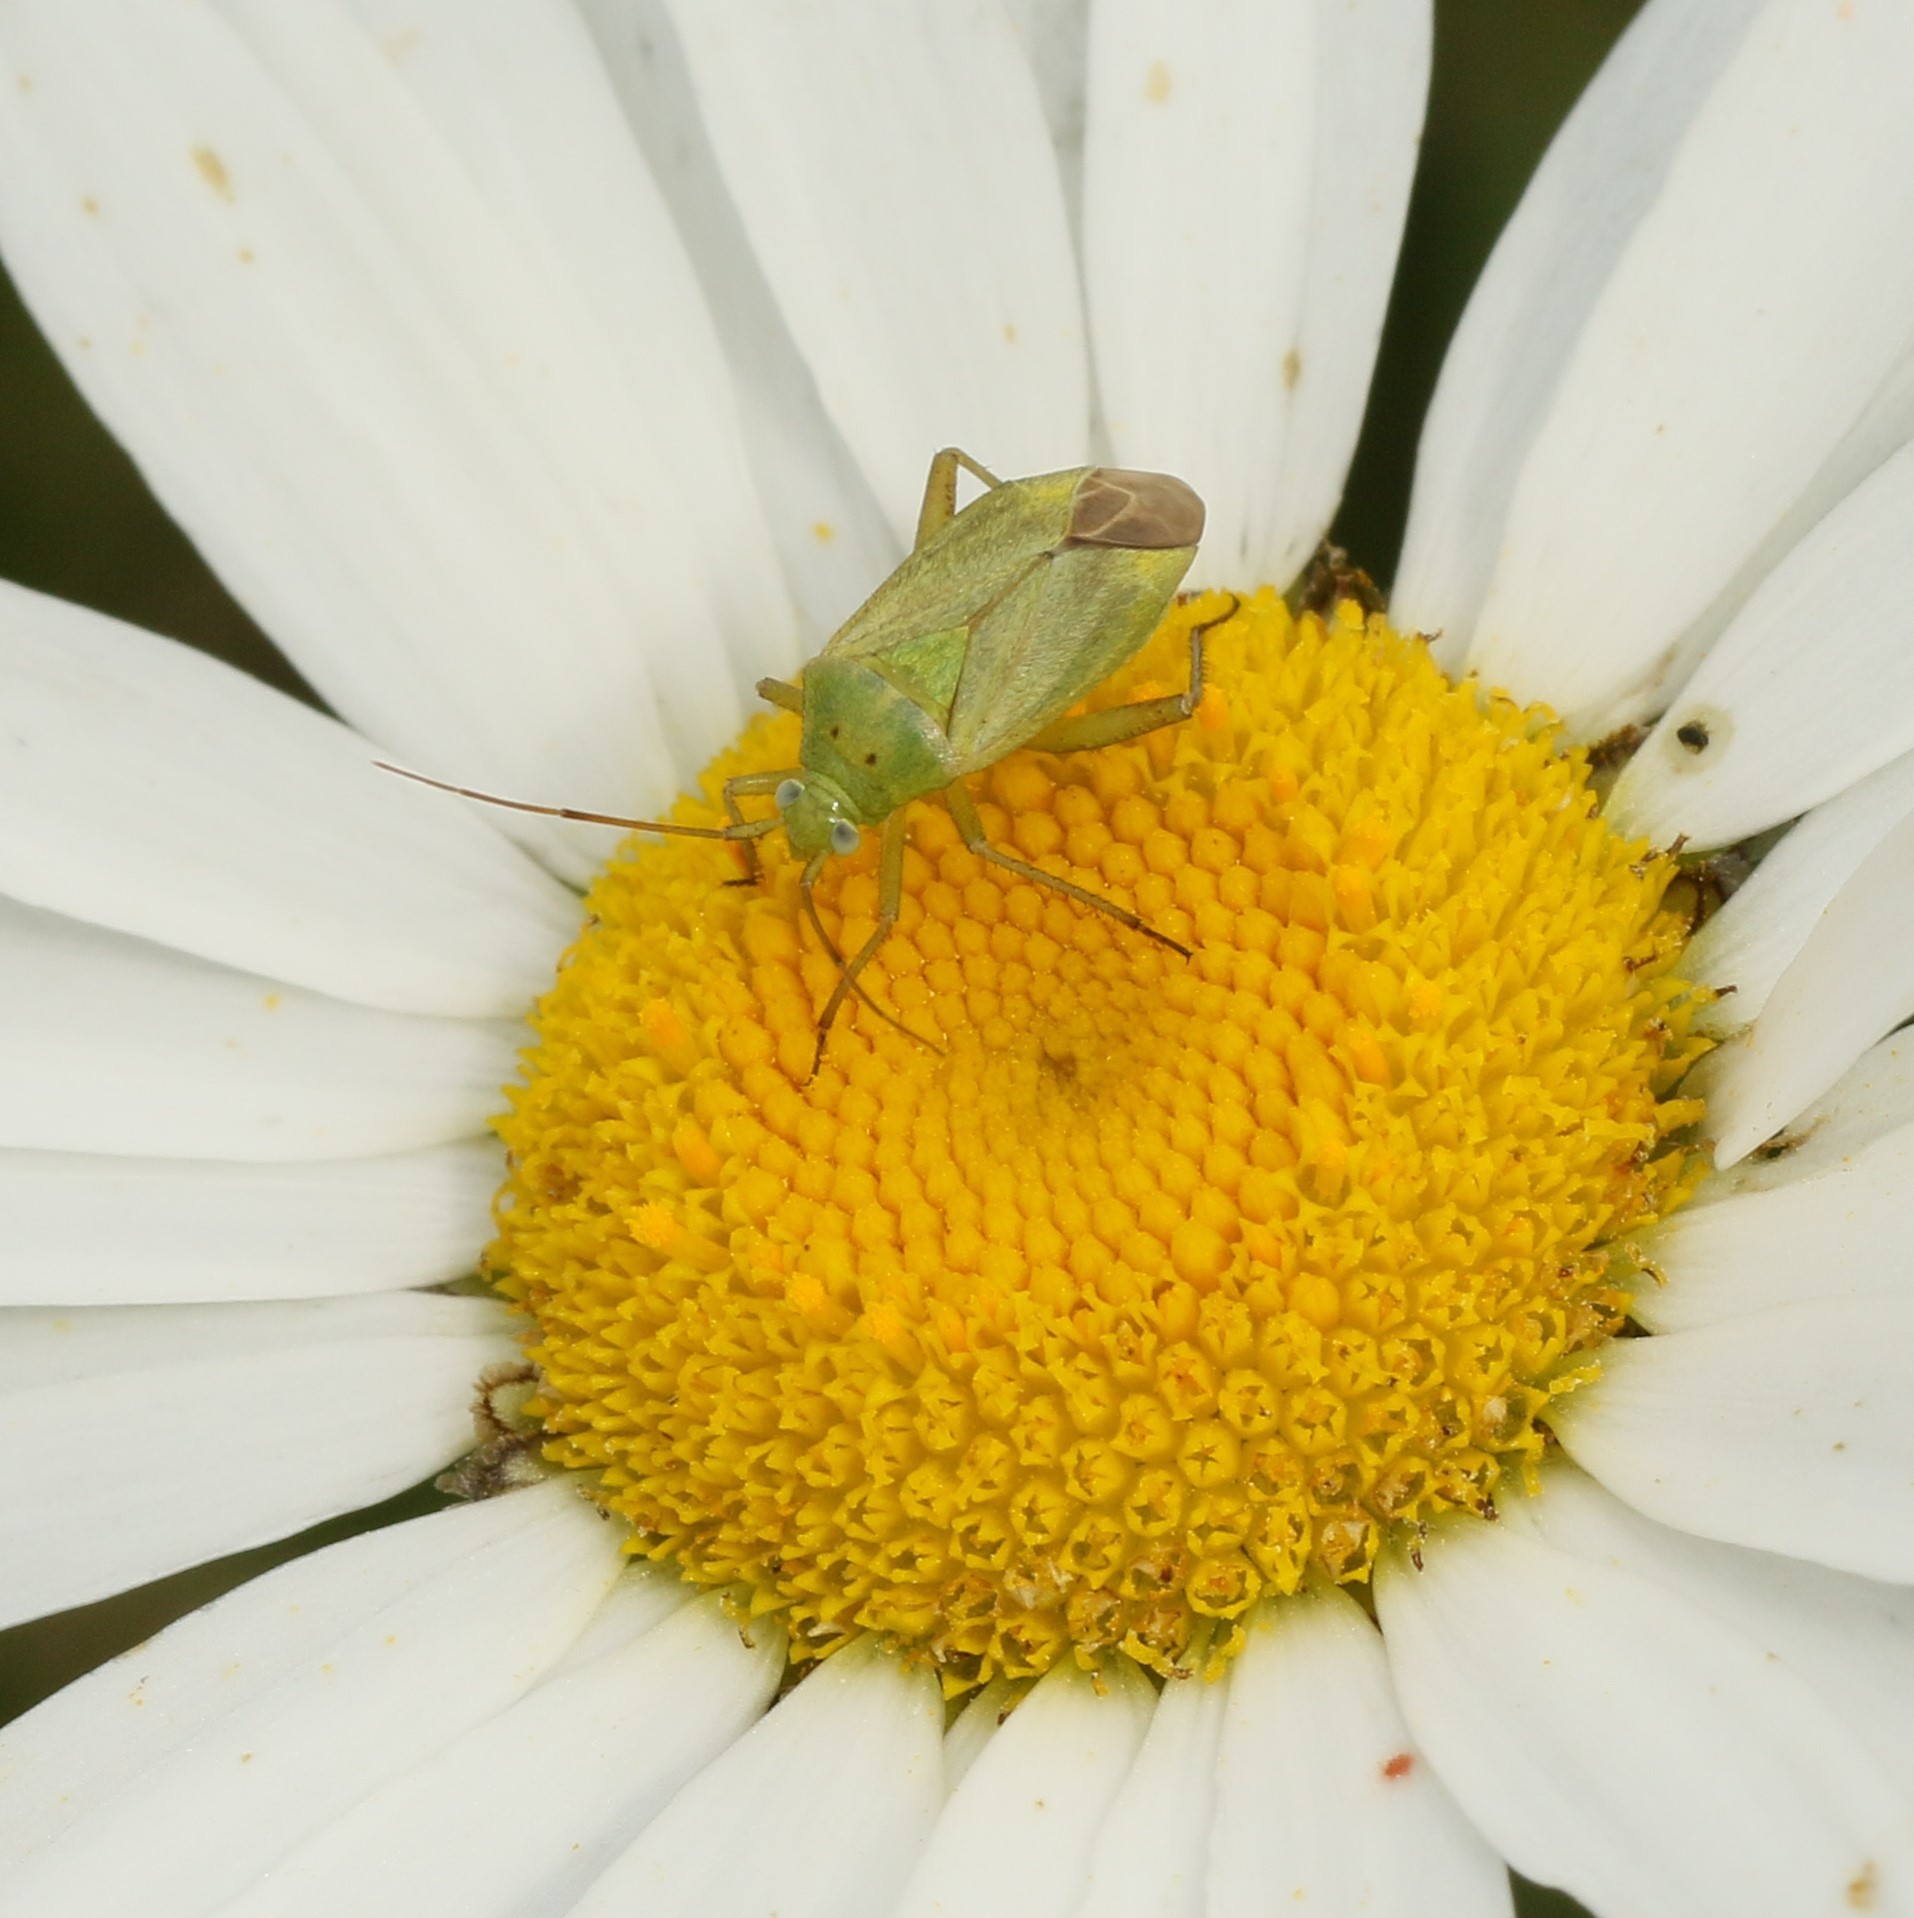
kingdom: Animalia
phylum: Arthropoda
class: Insecta
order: Hemiptera
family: Miridae
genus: Closterotomus
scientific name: Closterotomus norvegicus
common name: Plant bug
